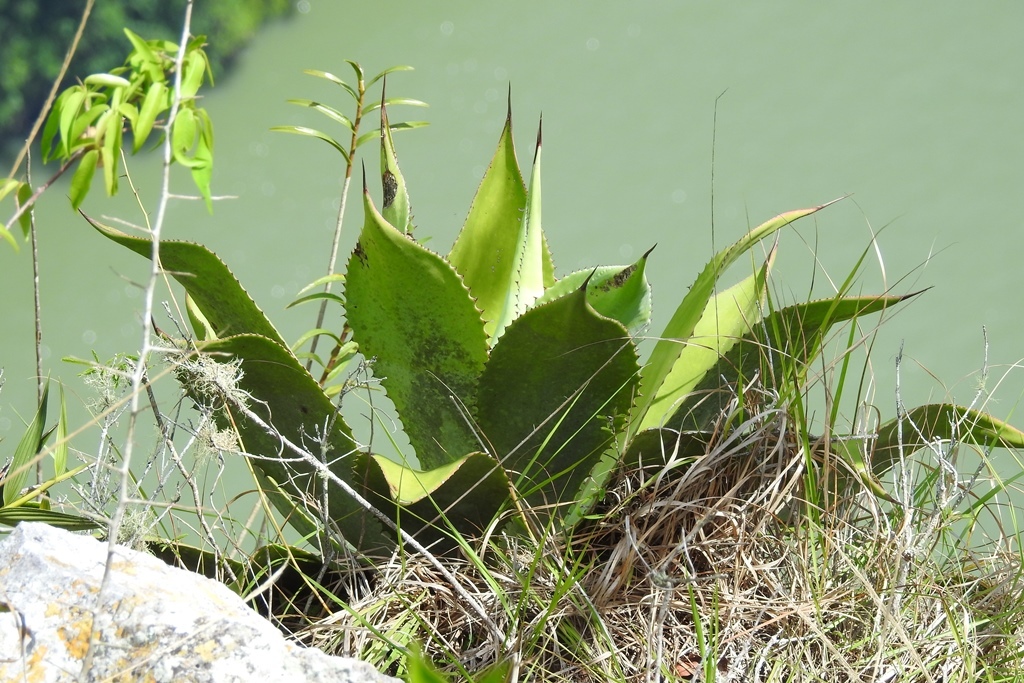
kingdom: Plantae
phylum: Tracheophyta
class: Liliopsida
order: Asparagales
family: Asparagaceae
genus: Agave
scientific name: Agave hiemiflora
